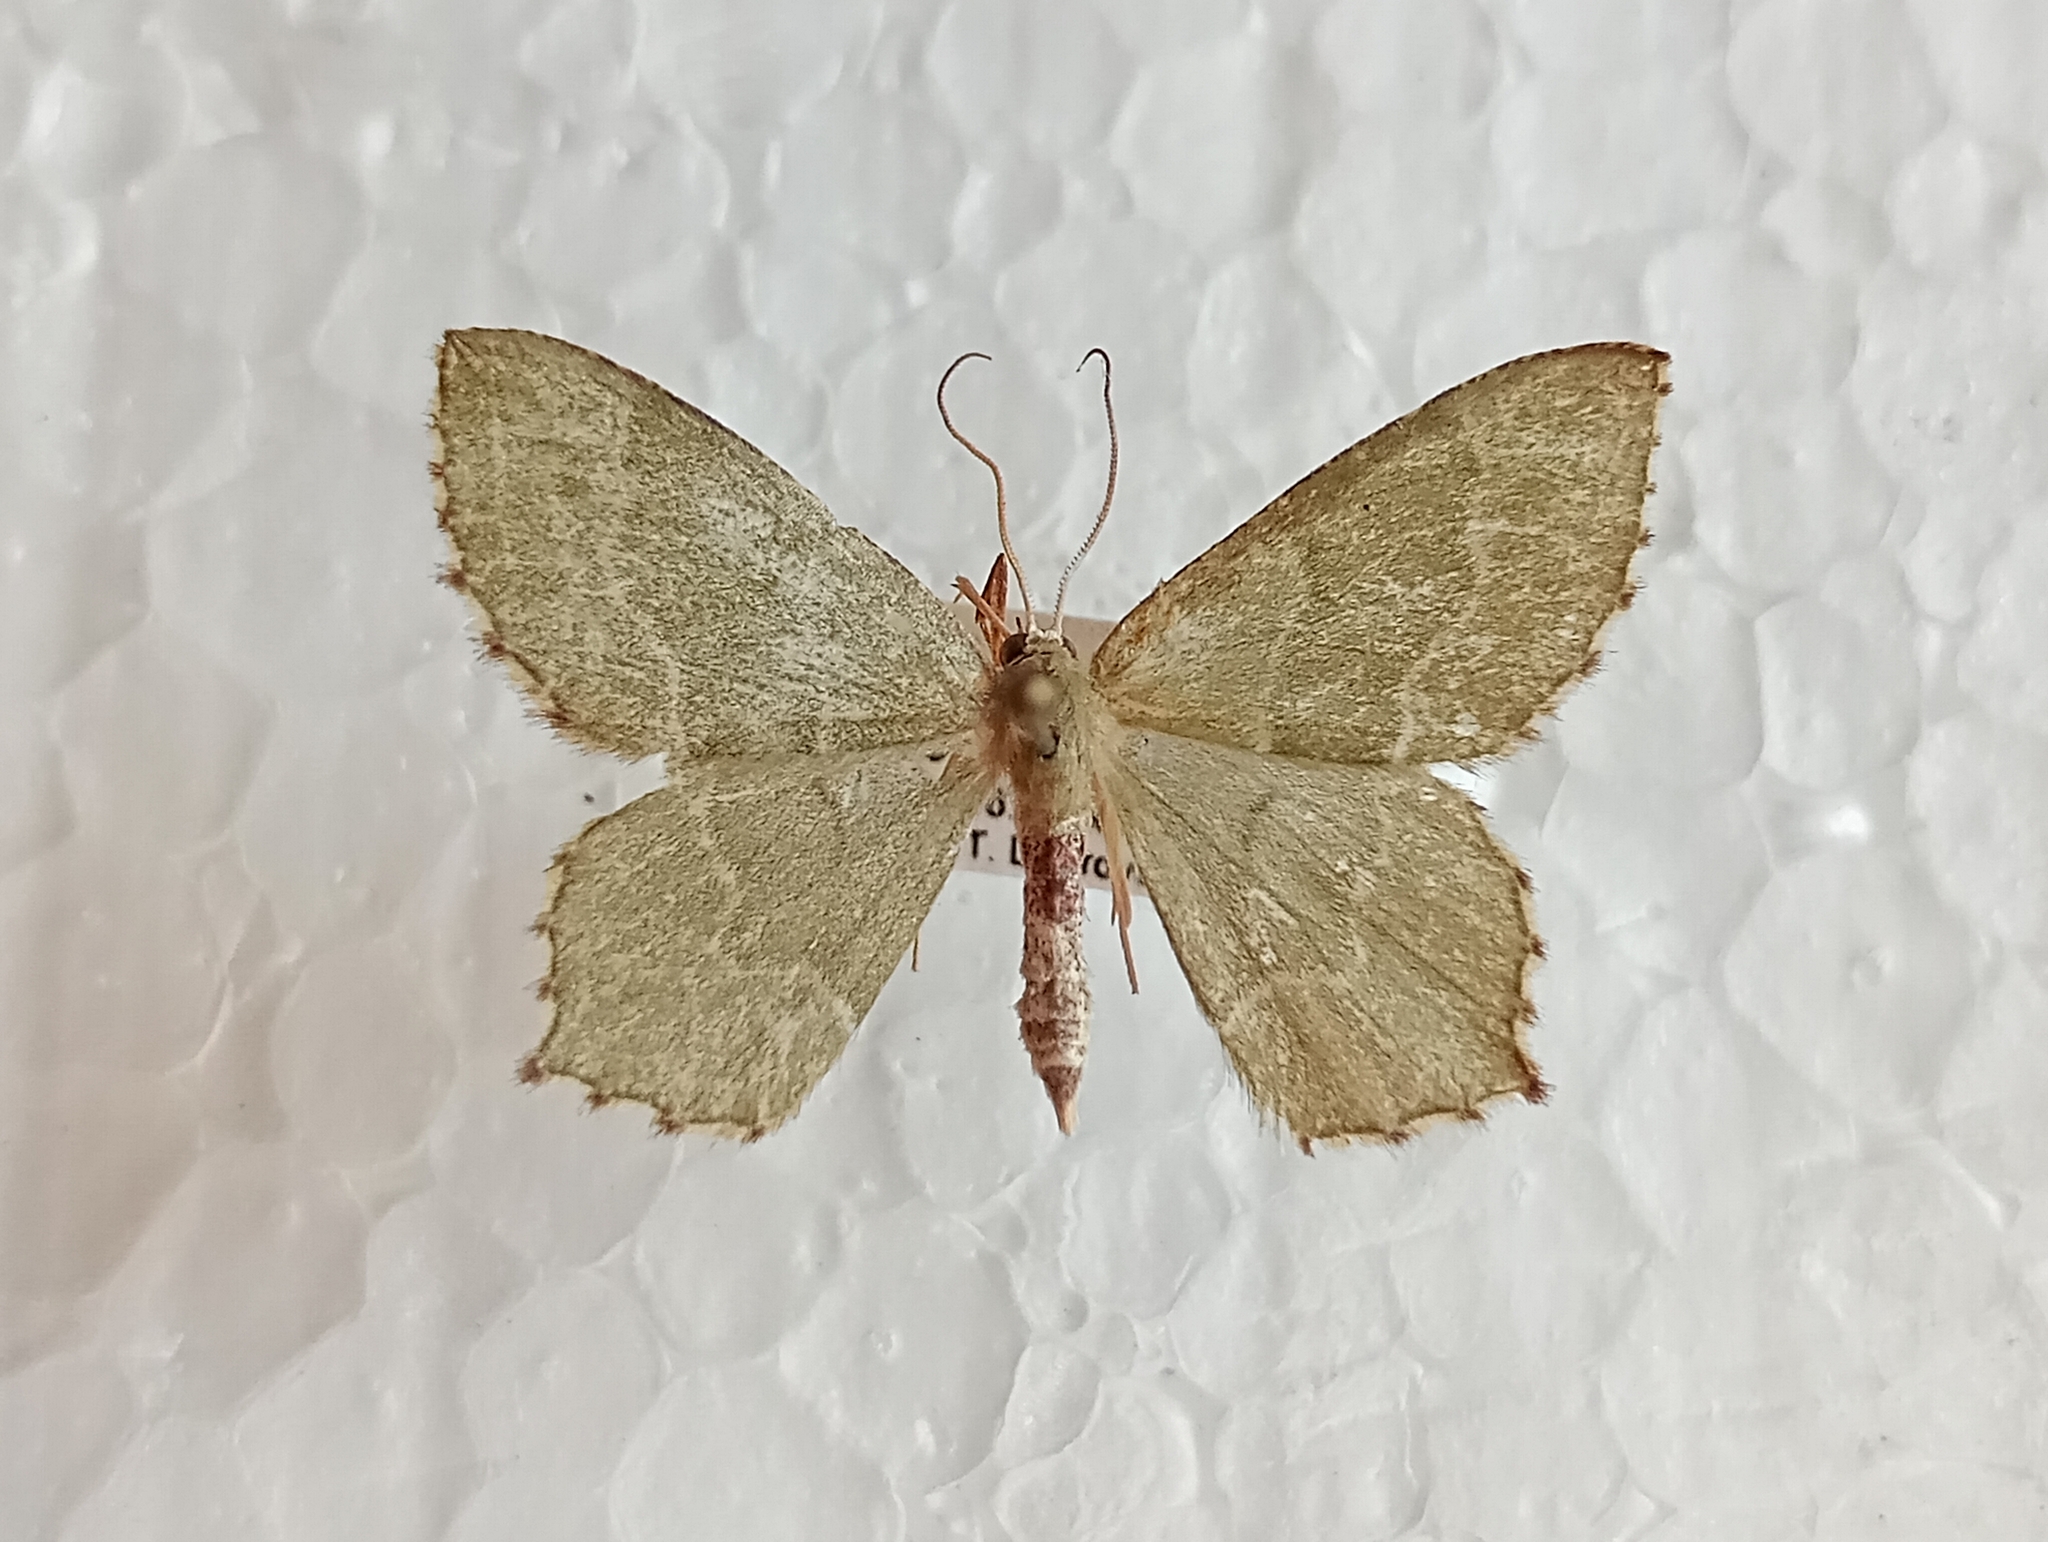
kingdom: Animalia
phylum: Arthropoda
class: Insecta
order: Lepidoptera
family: Geometridae
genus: Hemithea
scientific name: Hemithea aestivaria
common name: Common emerald
